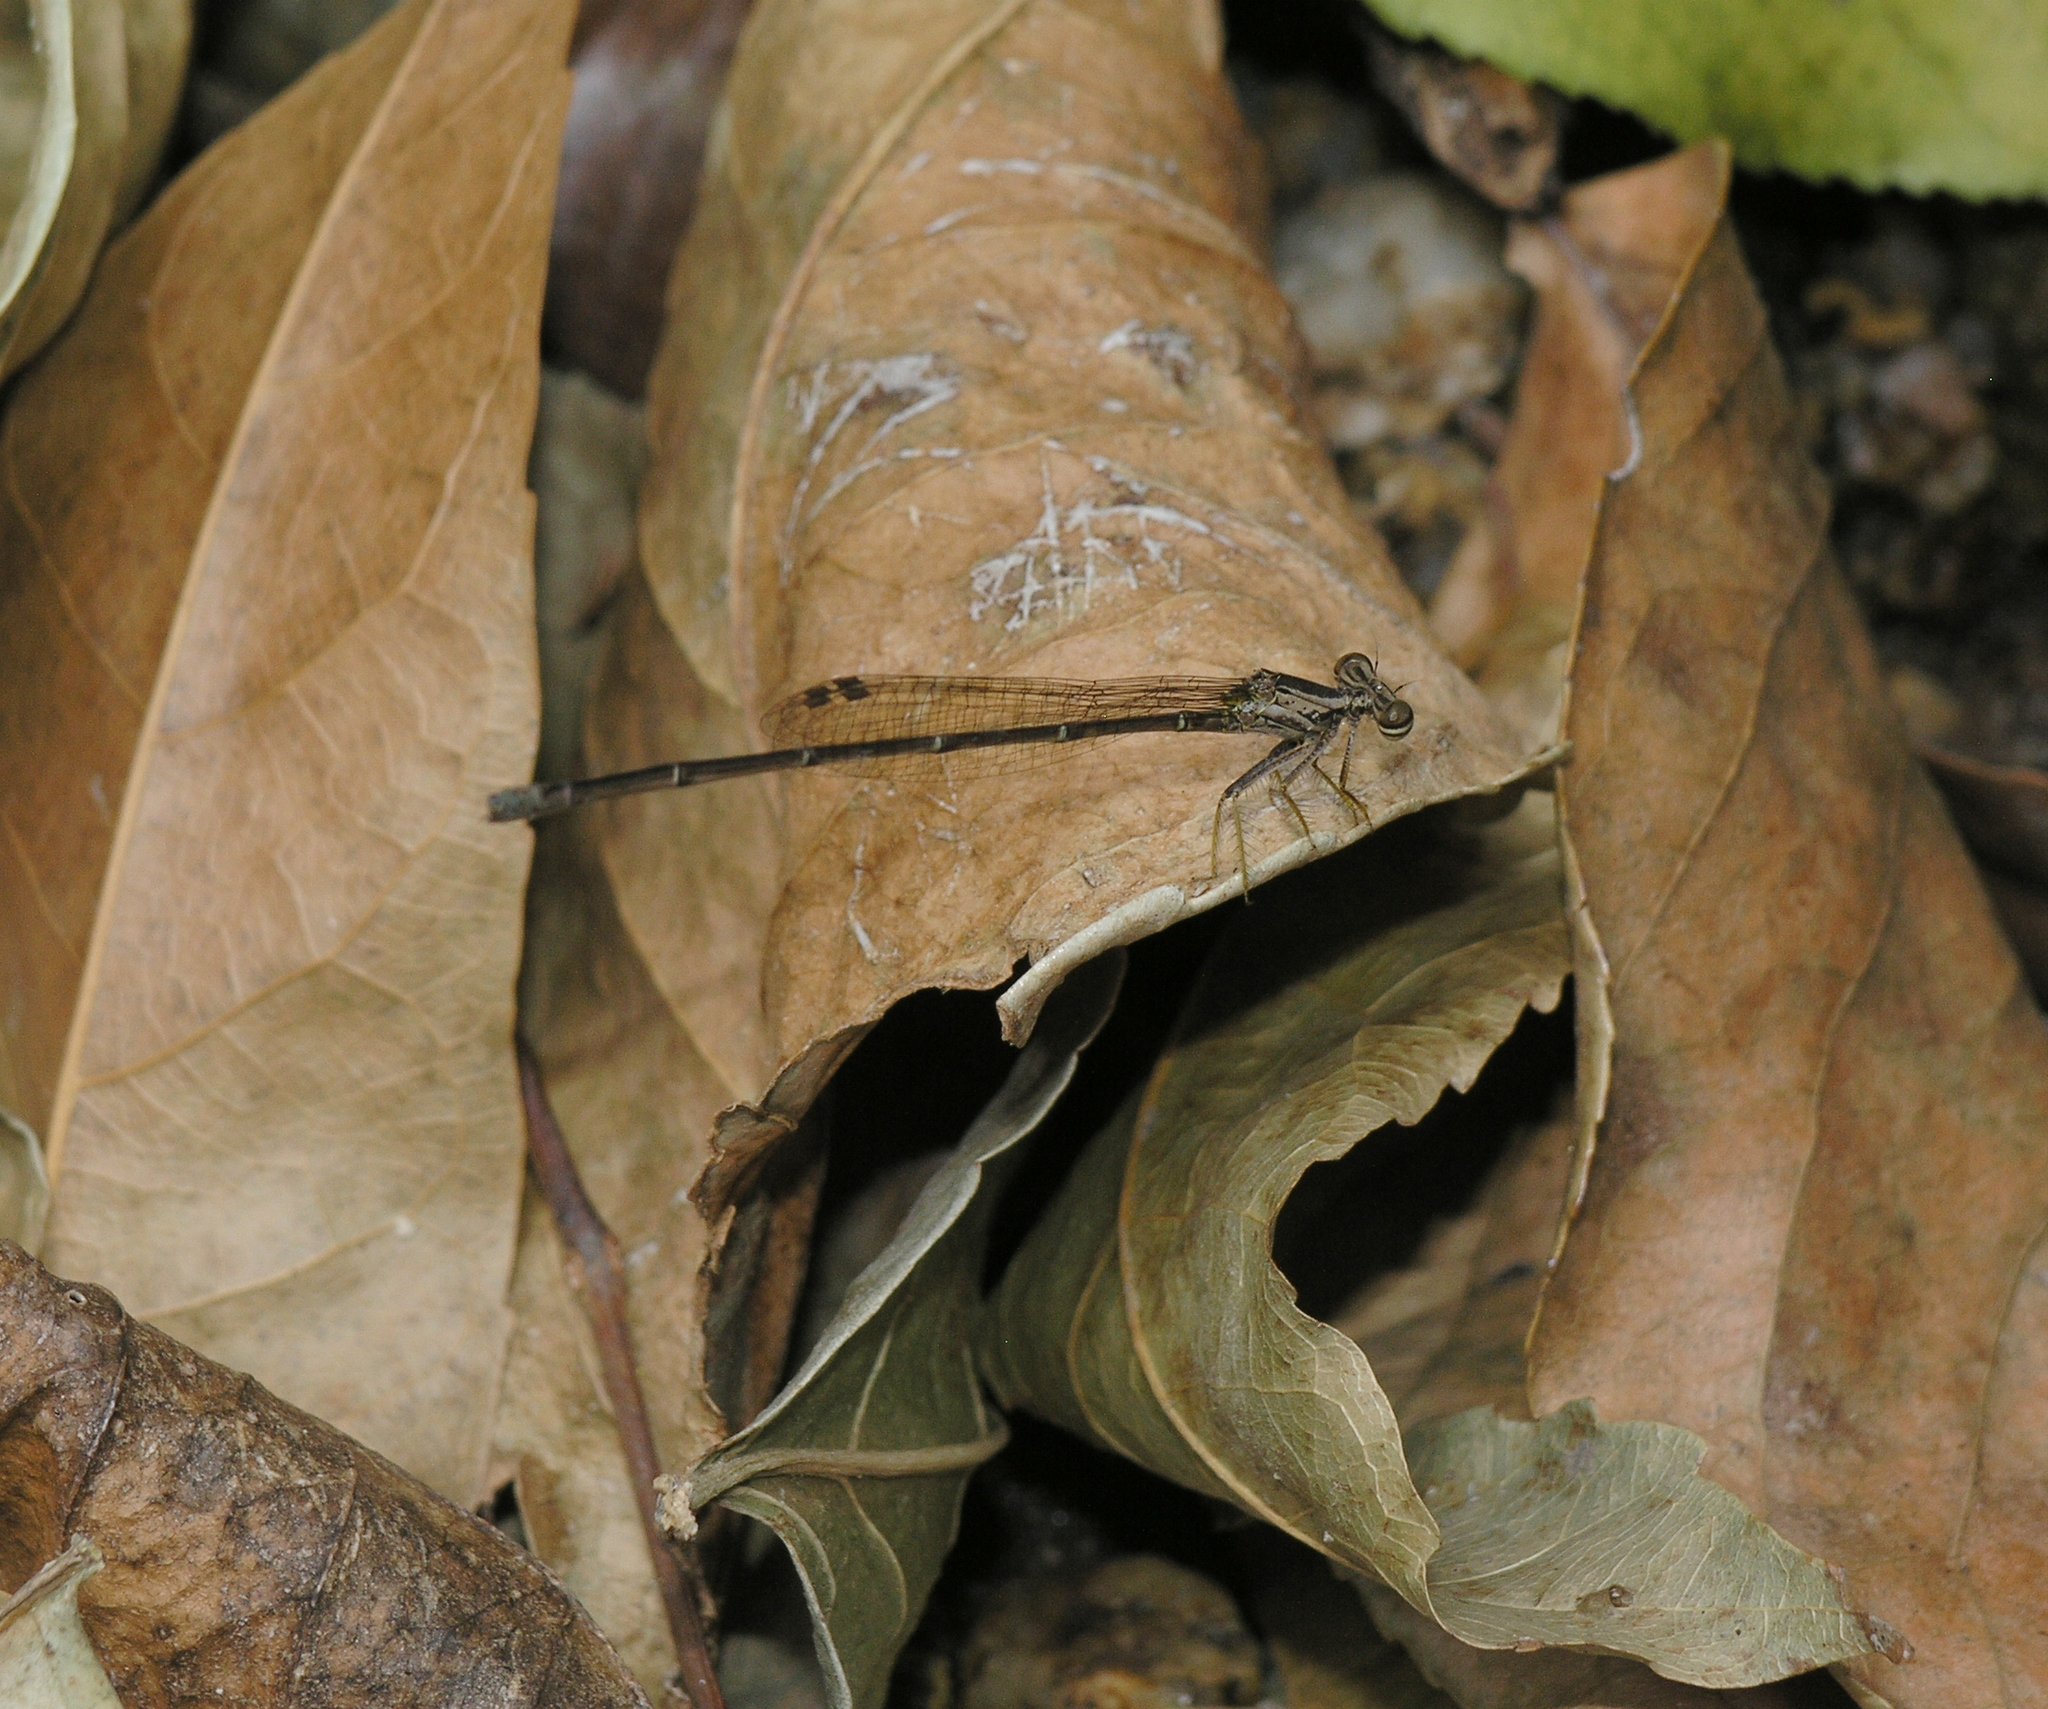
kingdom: Animalia
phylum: Arthropoda
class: Insecta
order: Odonata
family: Platycnemididae
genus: Copera
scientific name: Copera vittata
